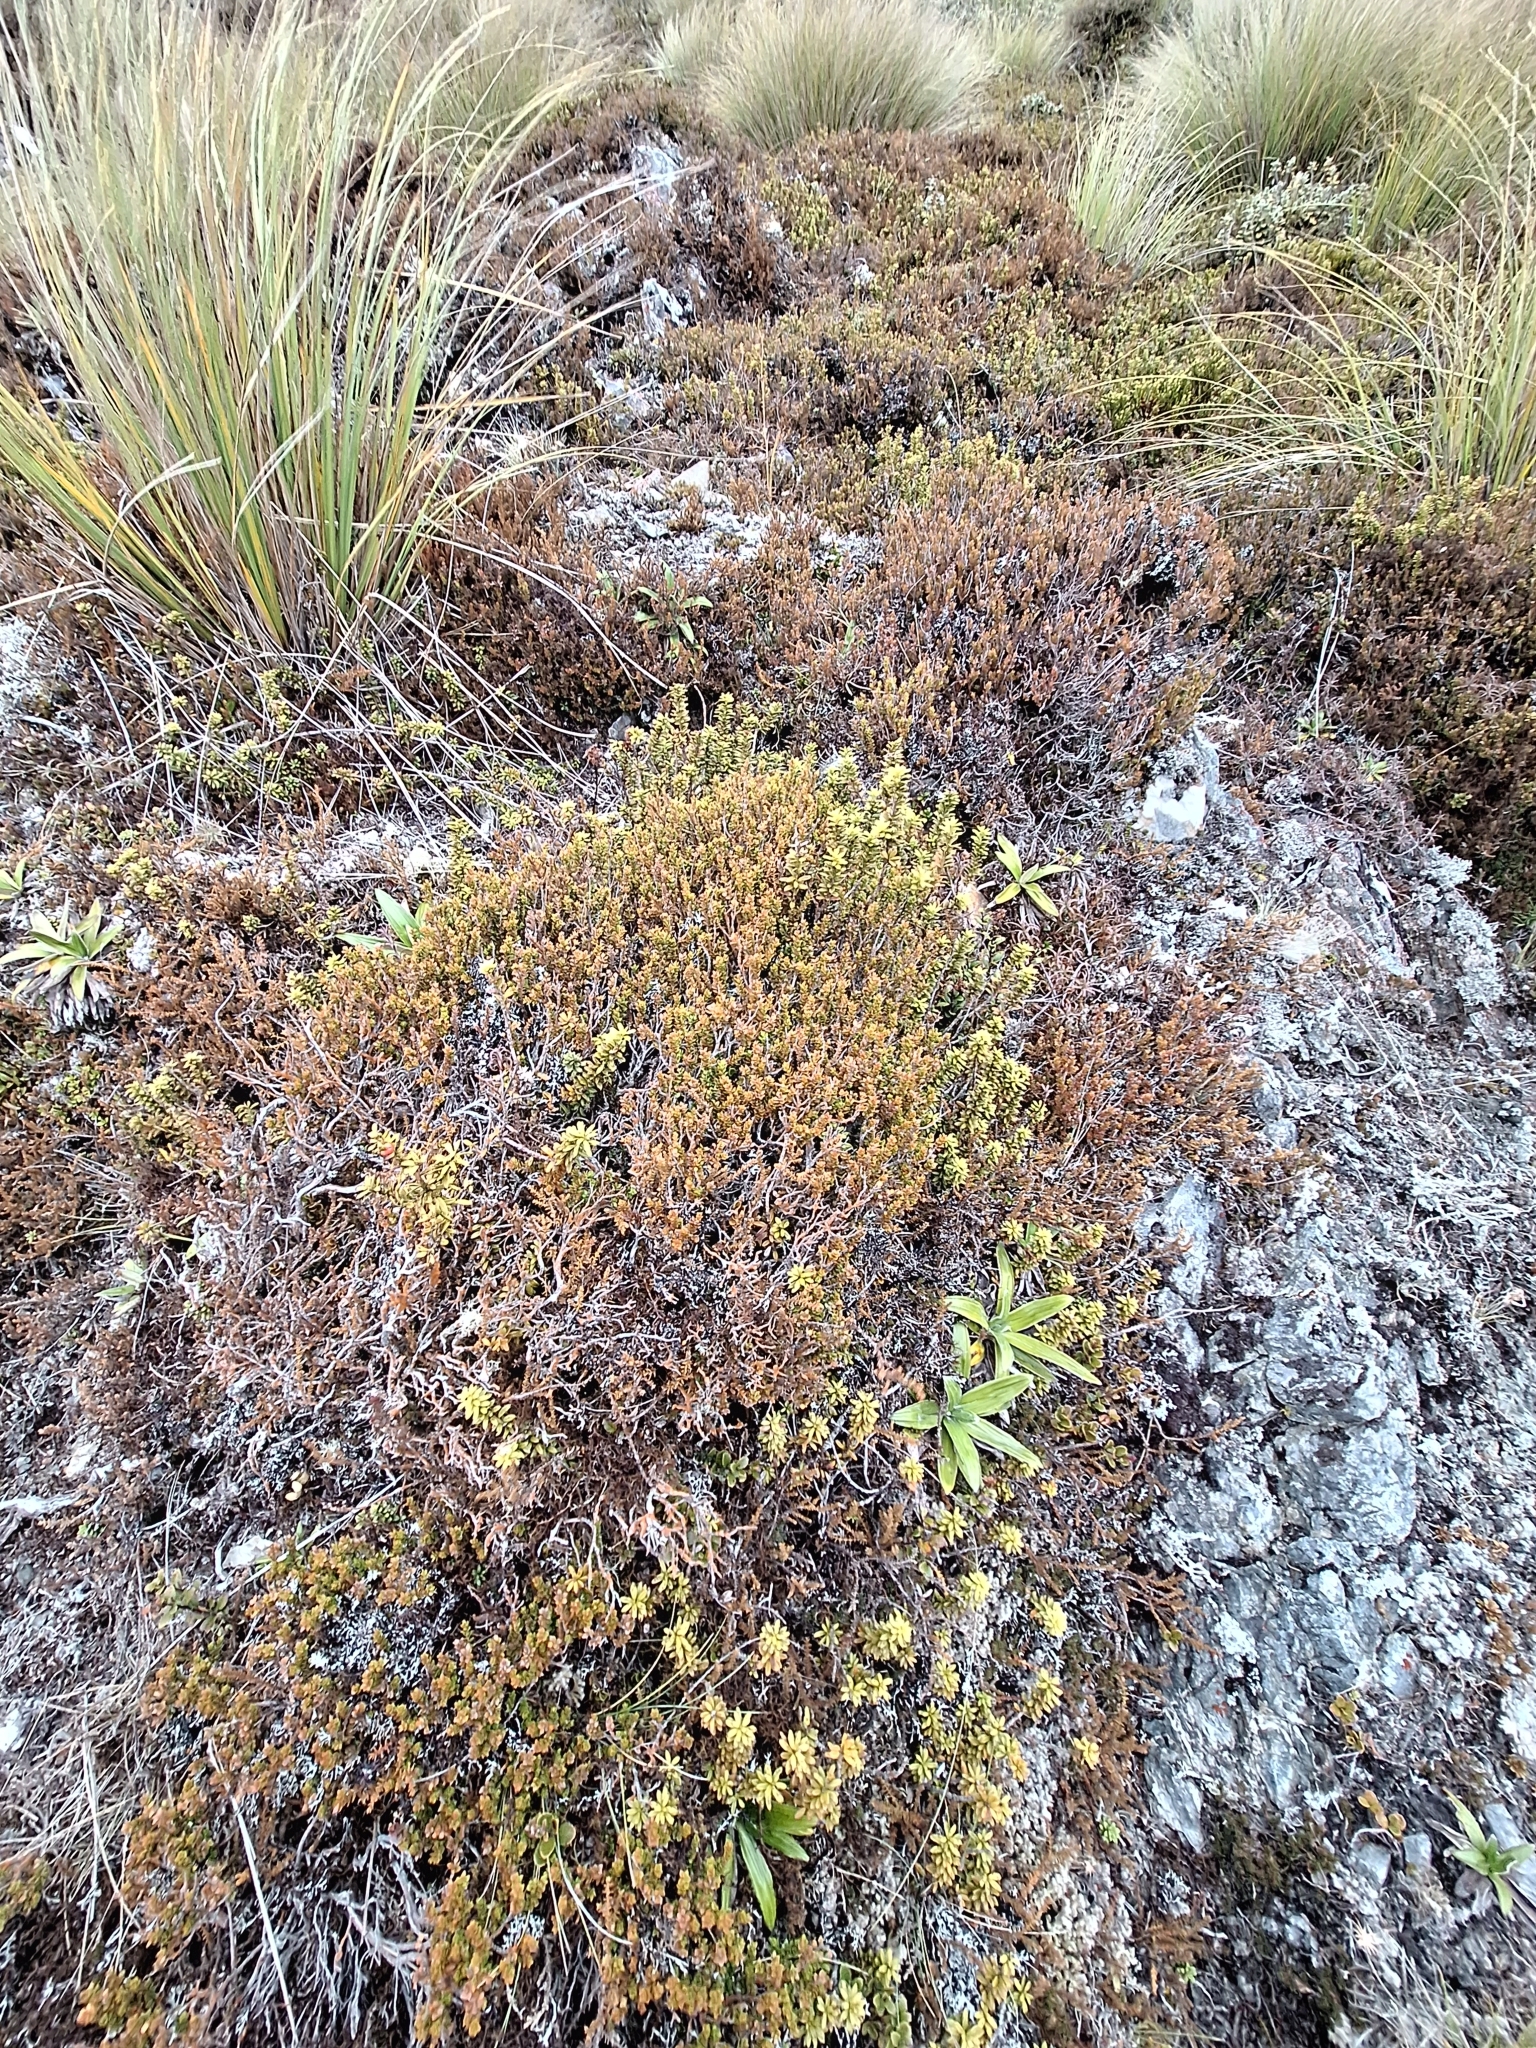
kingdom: Plantae
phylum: Tracheophyta
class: Magnoliopsida
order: Ericales
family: Ericaceae
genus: Epacris
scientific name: Epacris alpina
